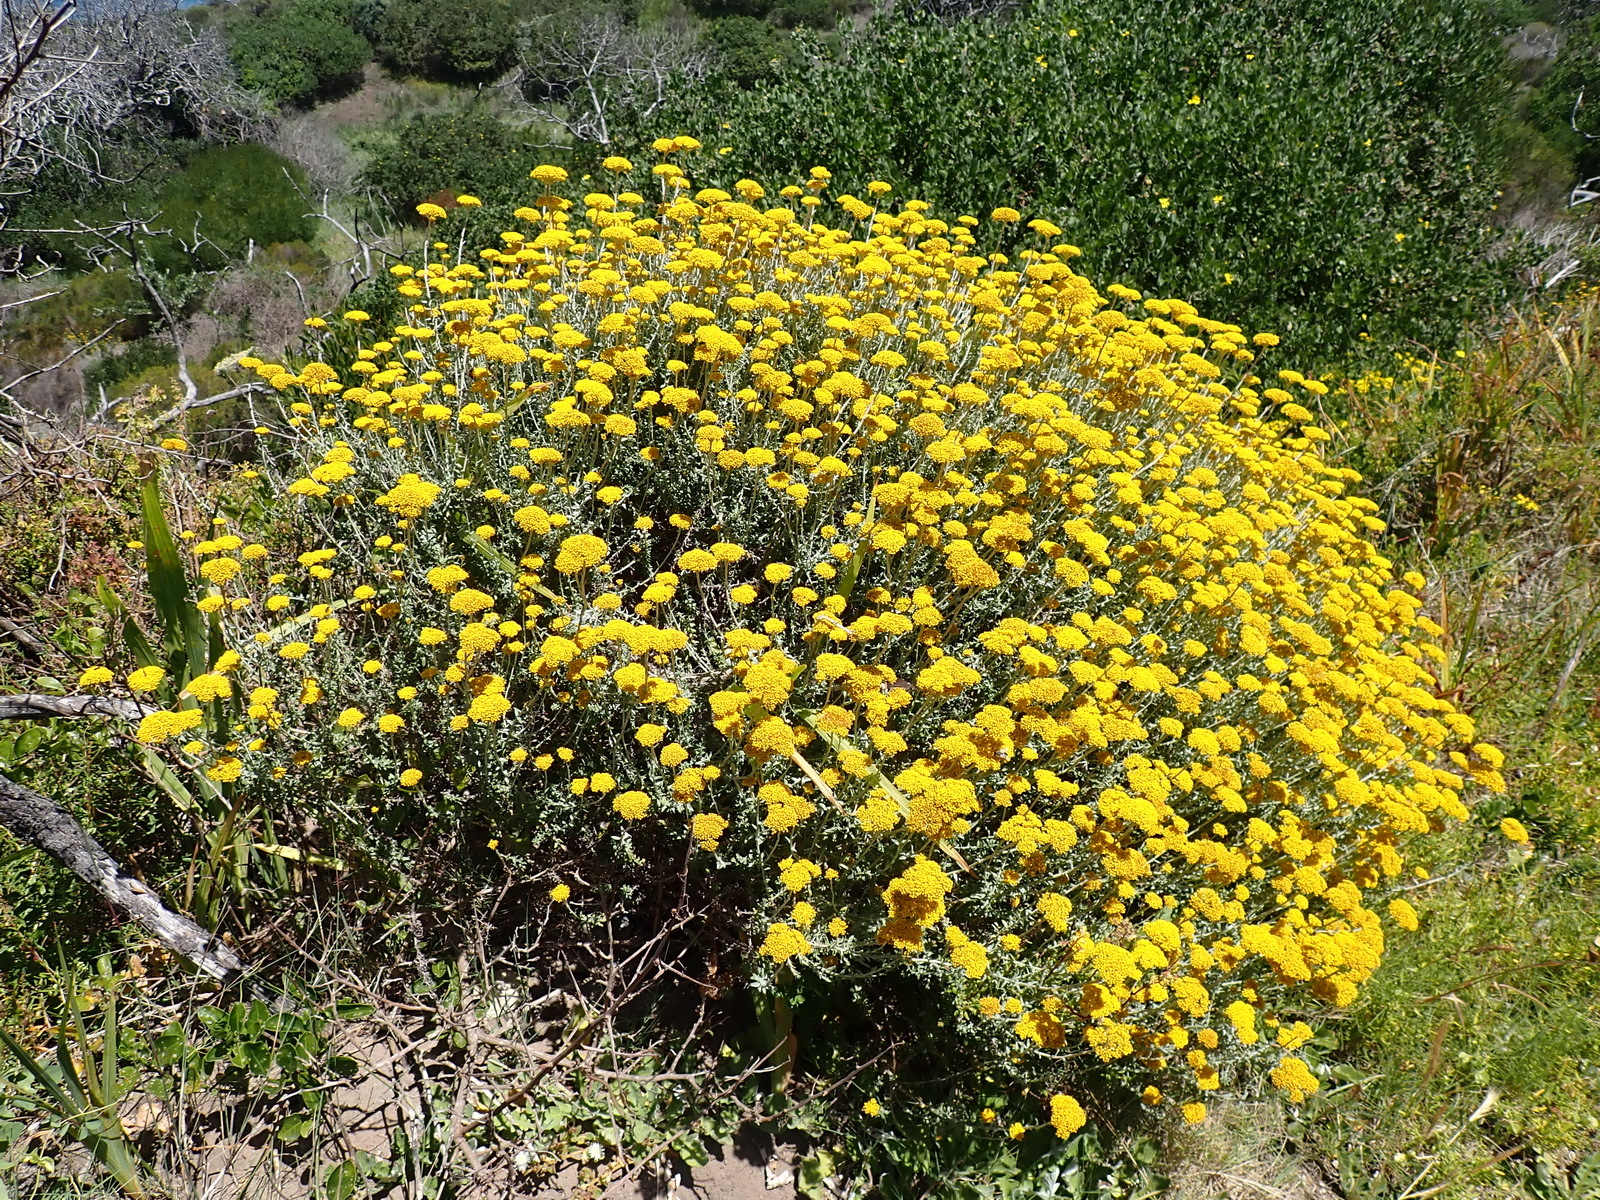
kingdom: Plantae
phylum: Tracheophyta
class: Magnoliopsida
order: Asterales
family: Asteraceae
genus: Helichrysum
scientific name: Helichrysum cymosum
